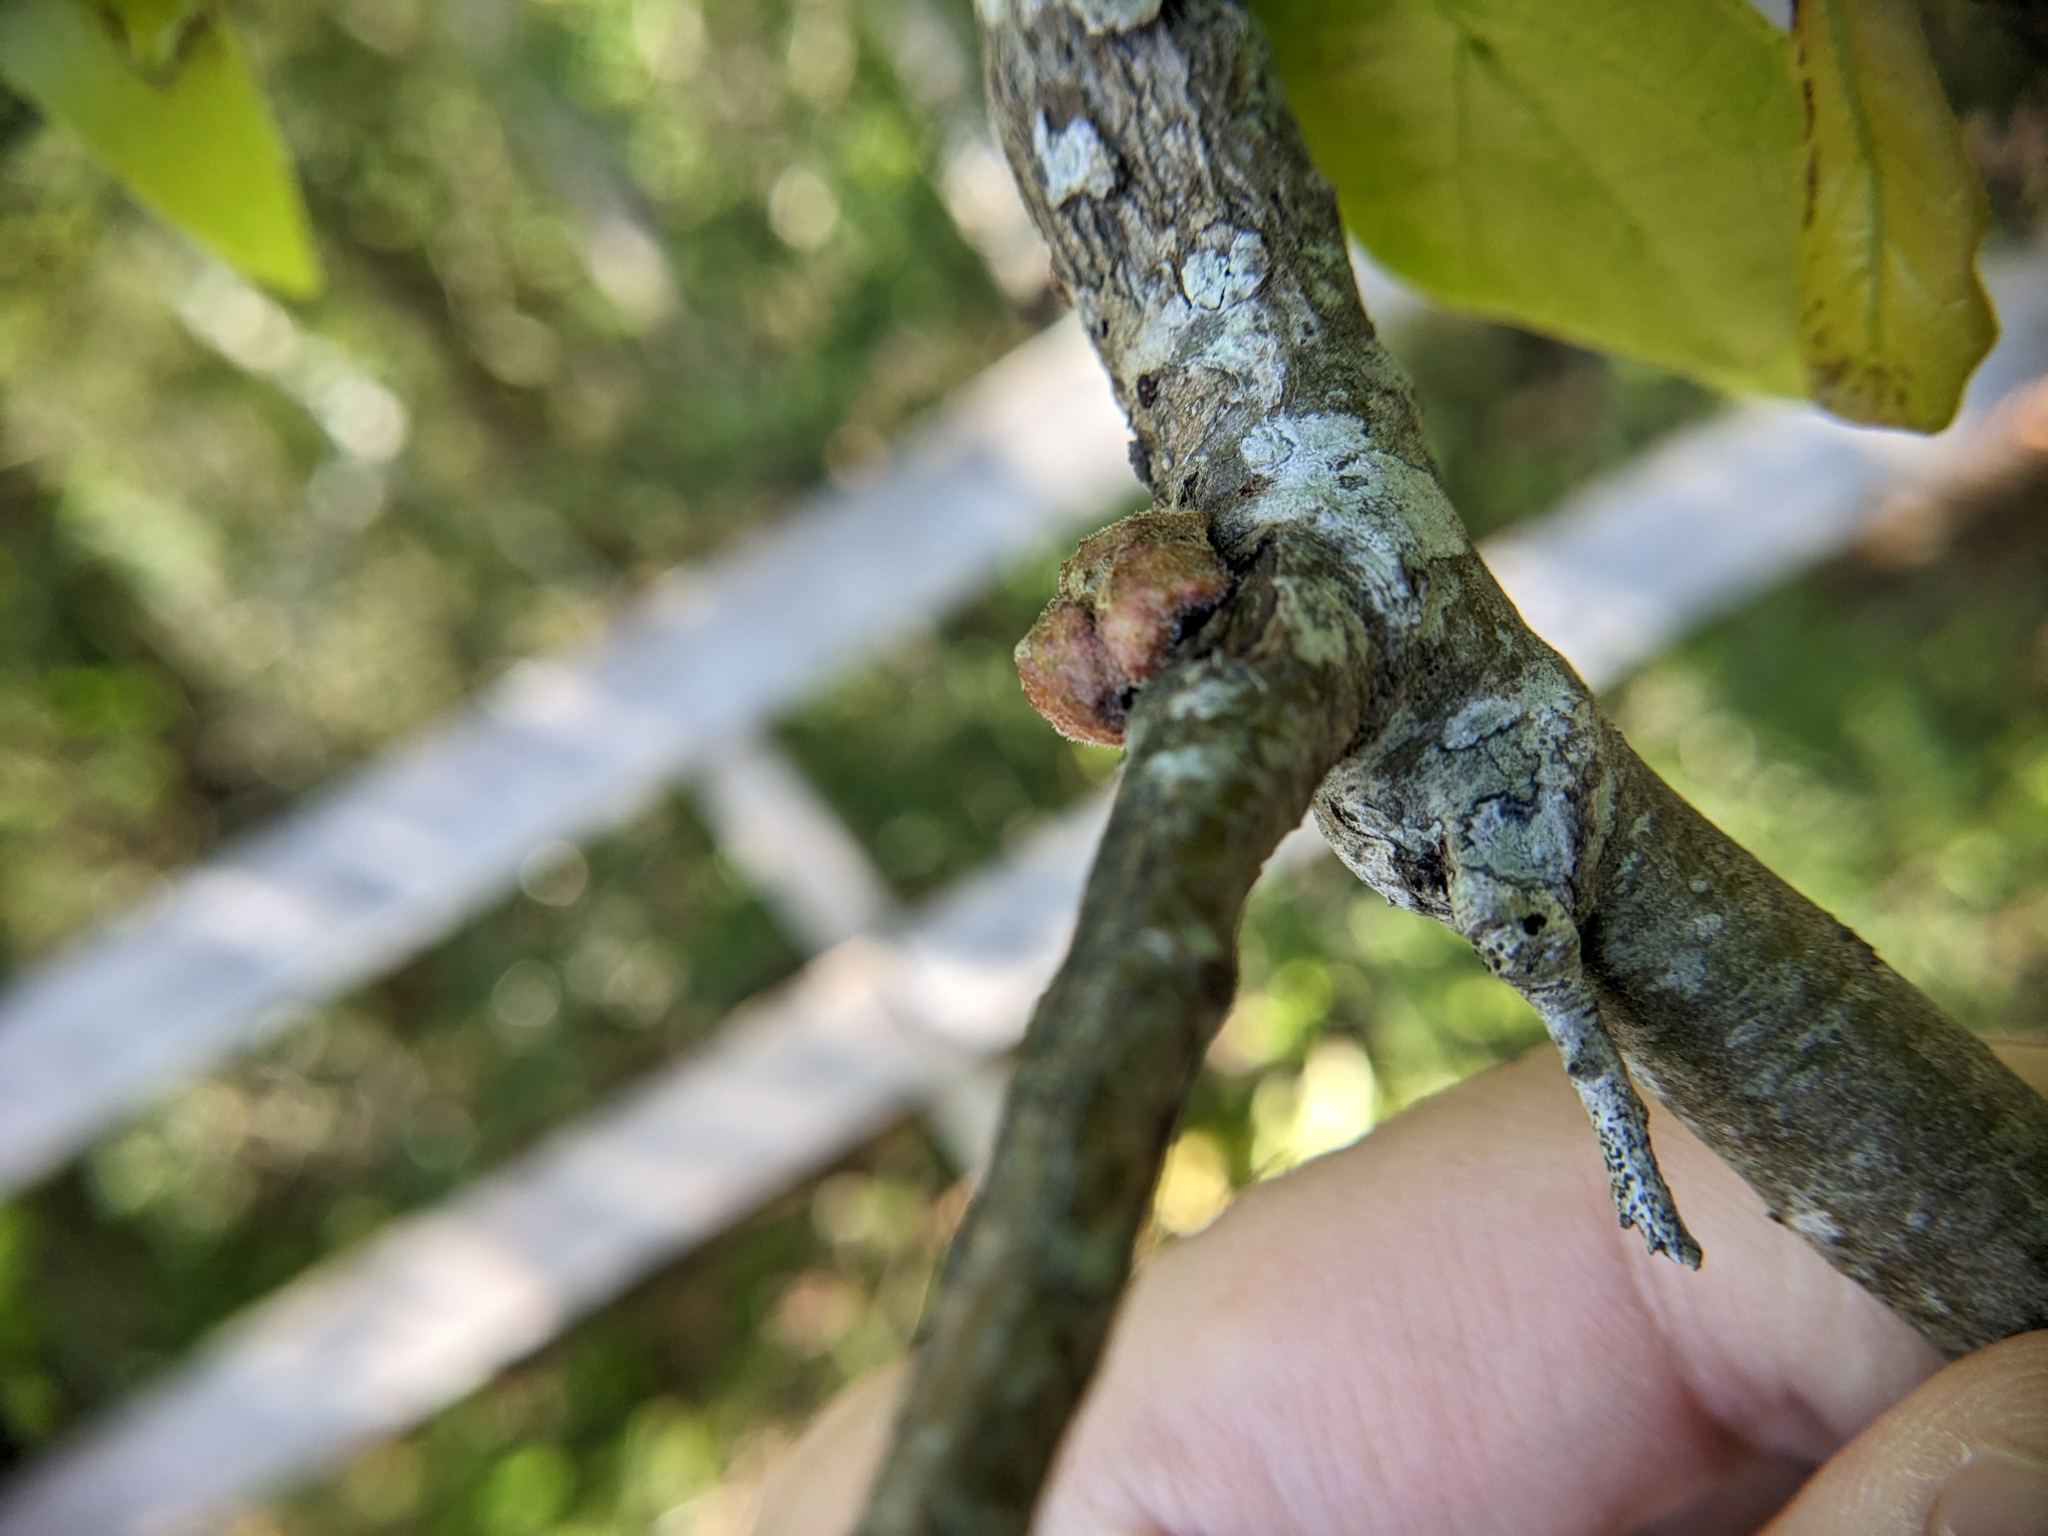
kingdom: Animalia
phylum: Arthropoda
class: Insecta
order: Hymenoptera
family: Cynipidae
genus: Callirhytis
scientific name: Callirhytis
